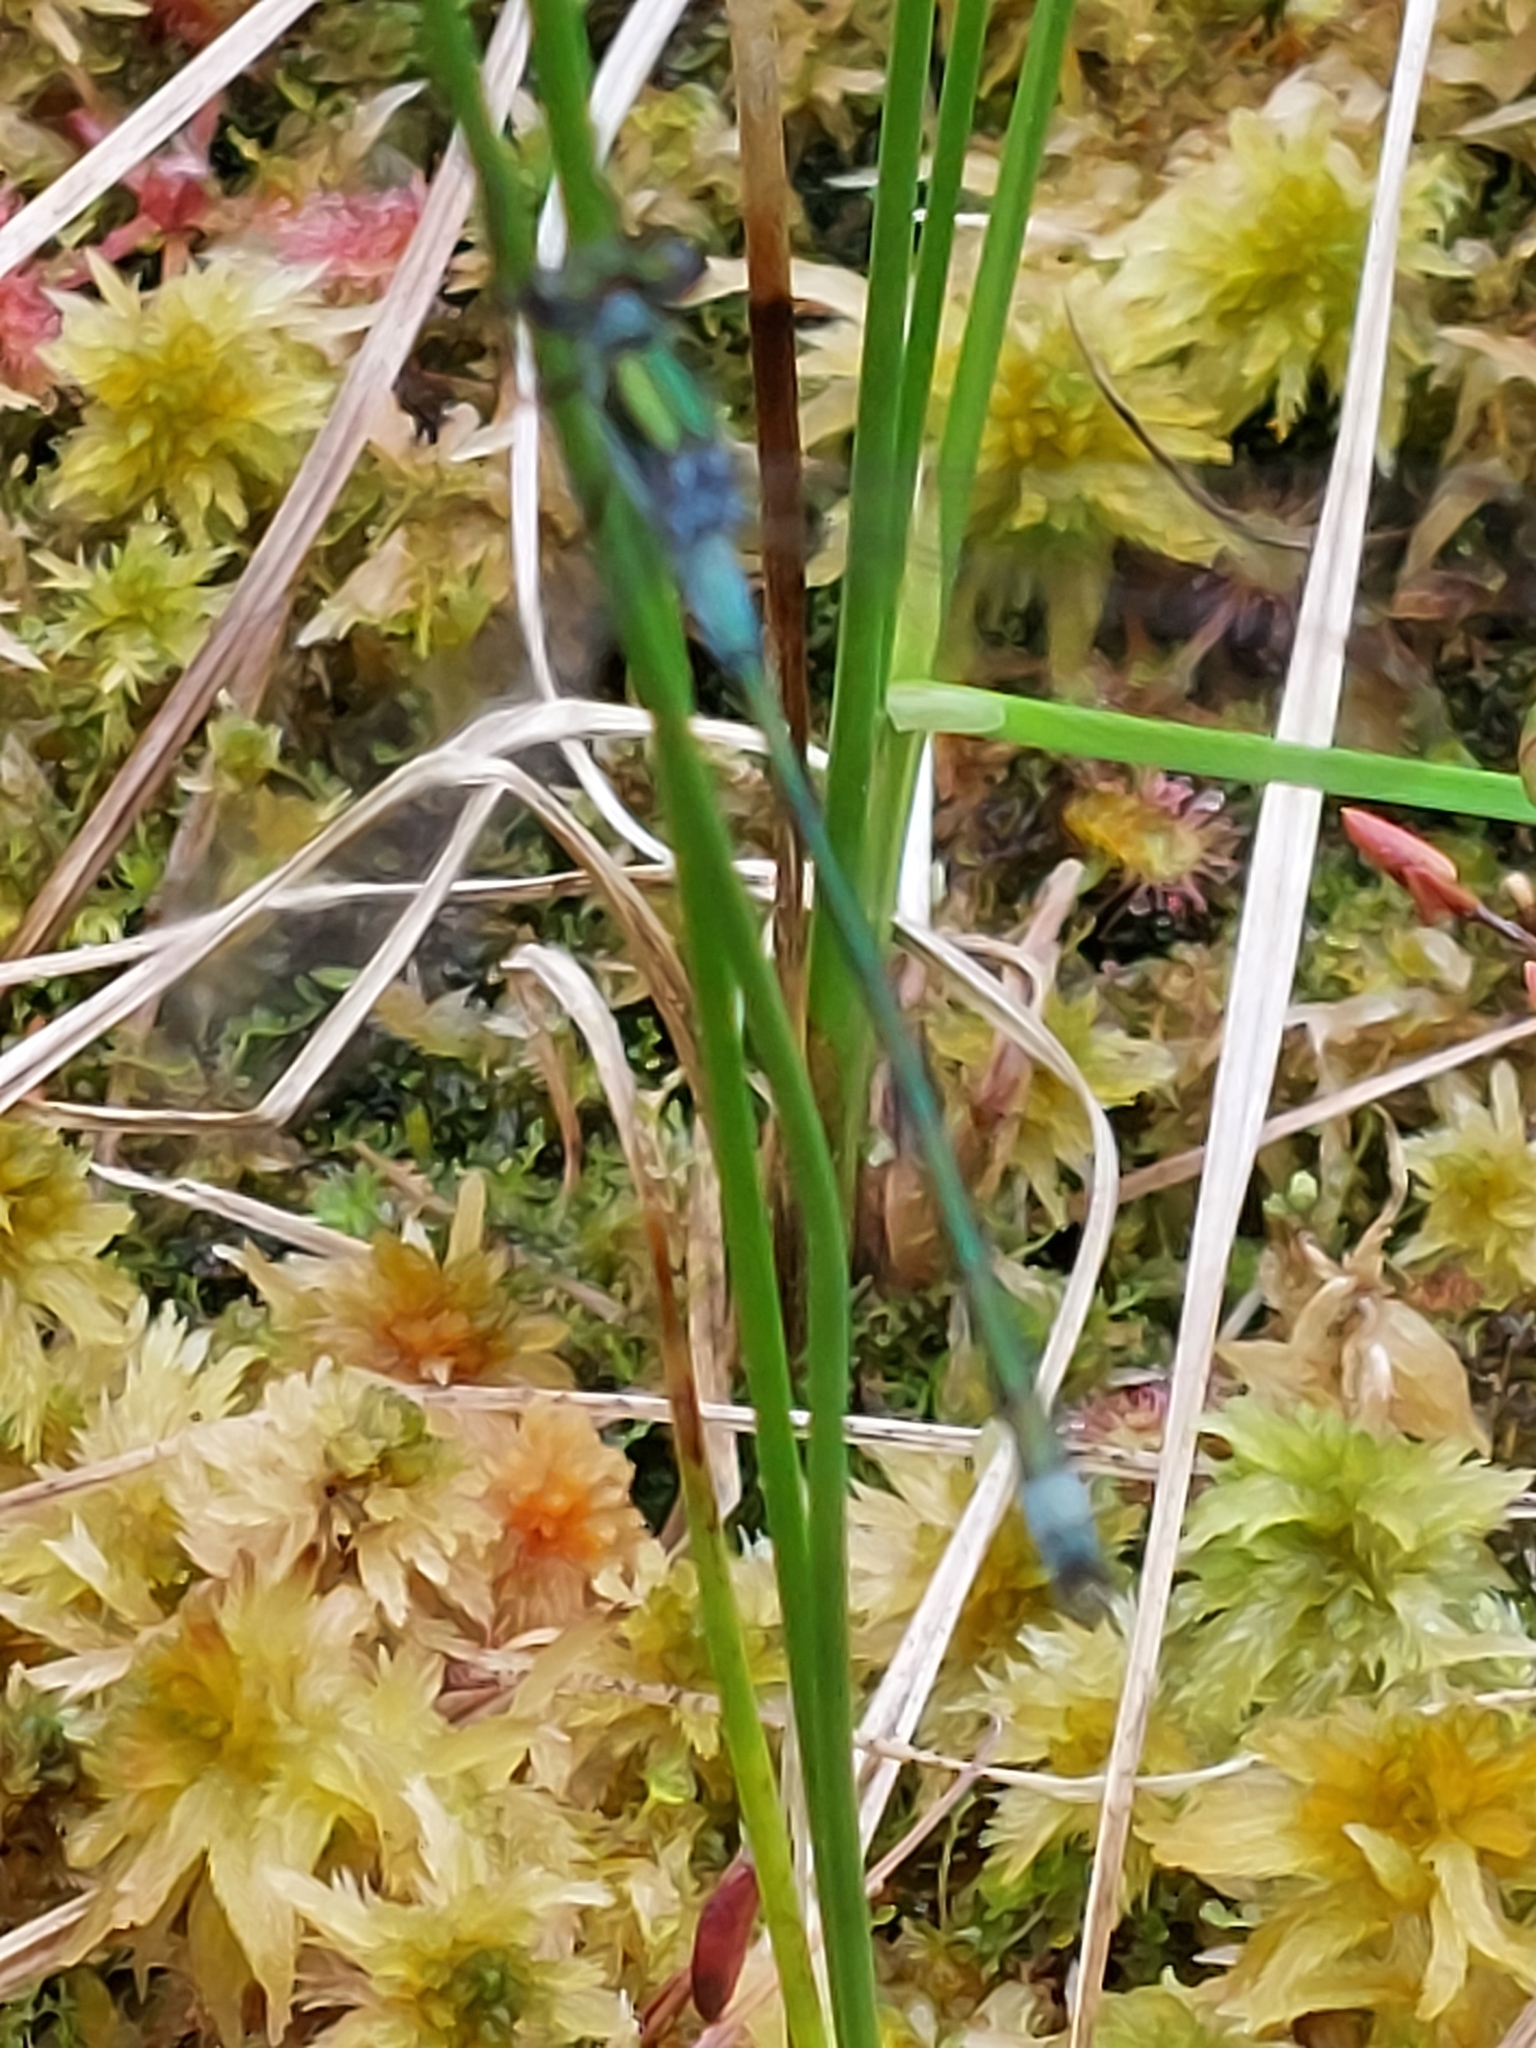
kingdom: Animalia
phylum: Arthropoda
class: Insecta
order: Odonata
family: Lestidae
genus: Lestes
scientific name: Lestes sponsa
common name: Common spreadwing
